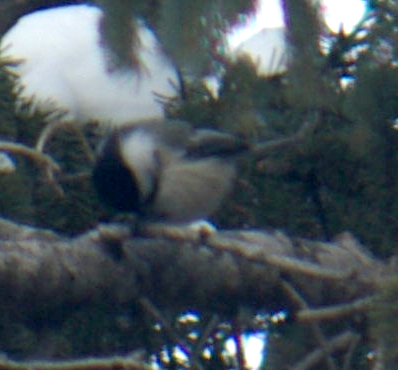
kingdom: Animalia
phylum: Chordata
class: Aves
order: Passeriformes
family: Paridae
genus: Poecile
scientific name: Poecile atricapillus
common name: Black-capped chickadee
